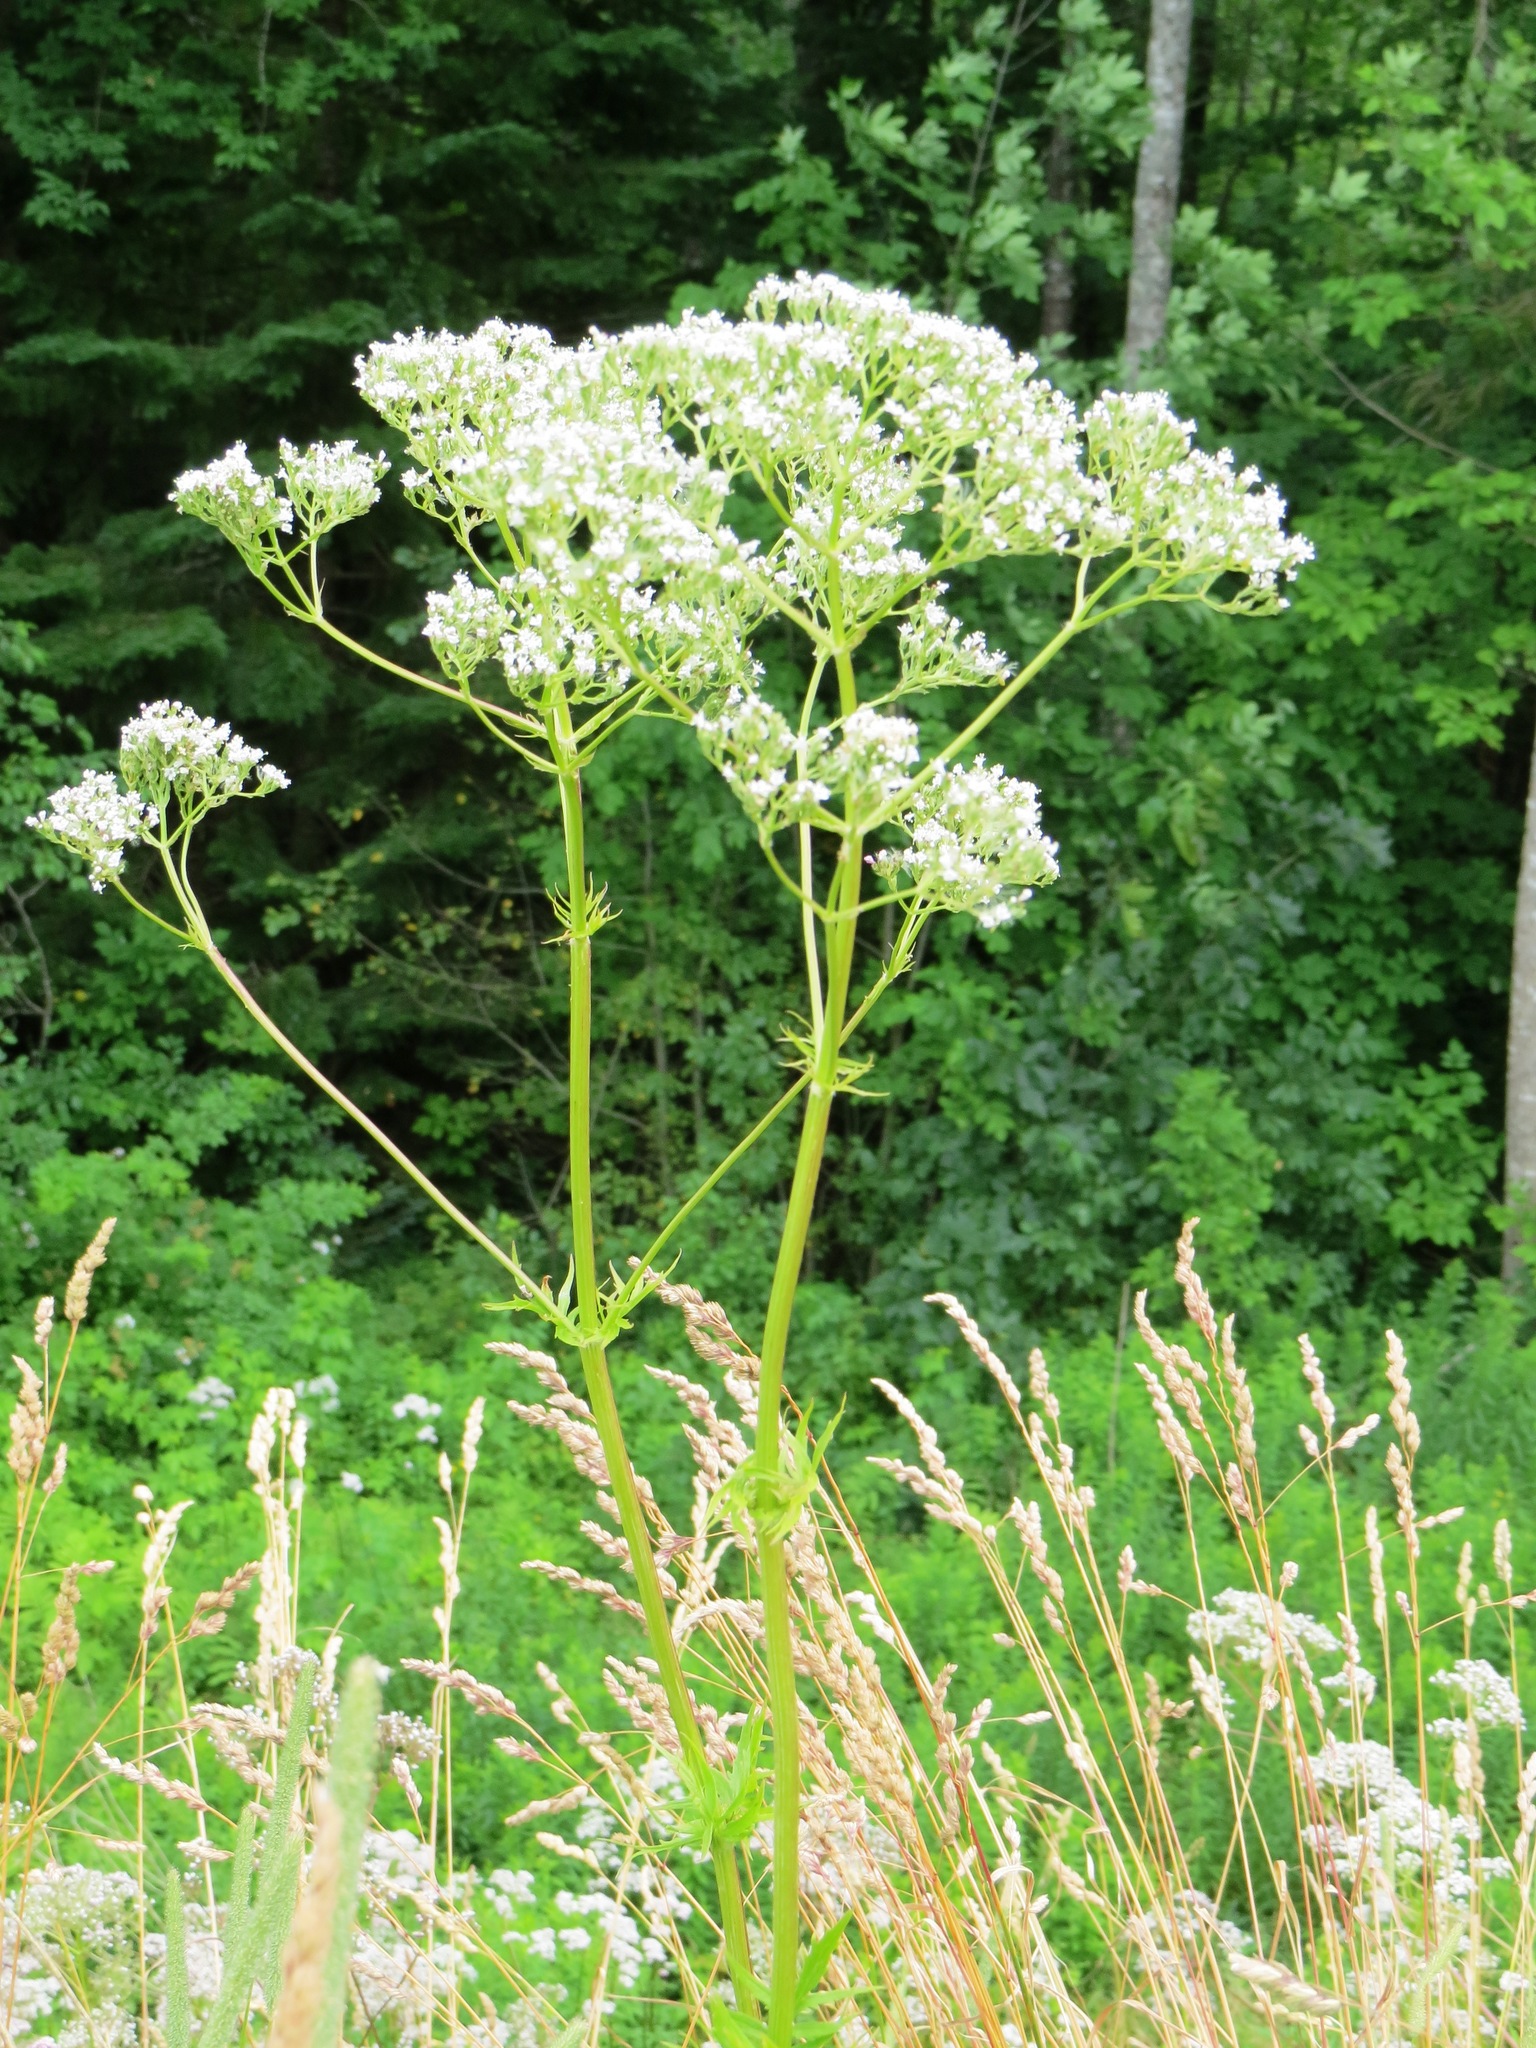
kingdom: Plantae
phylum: Tracheophyta
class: Magnoliopsida
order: Dipsacales
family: Caprifoliaceae
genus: Valeriana
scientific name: Valeriana officinalis
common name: Common valerian
